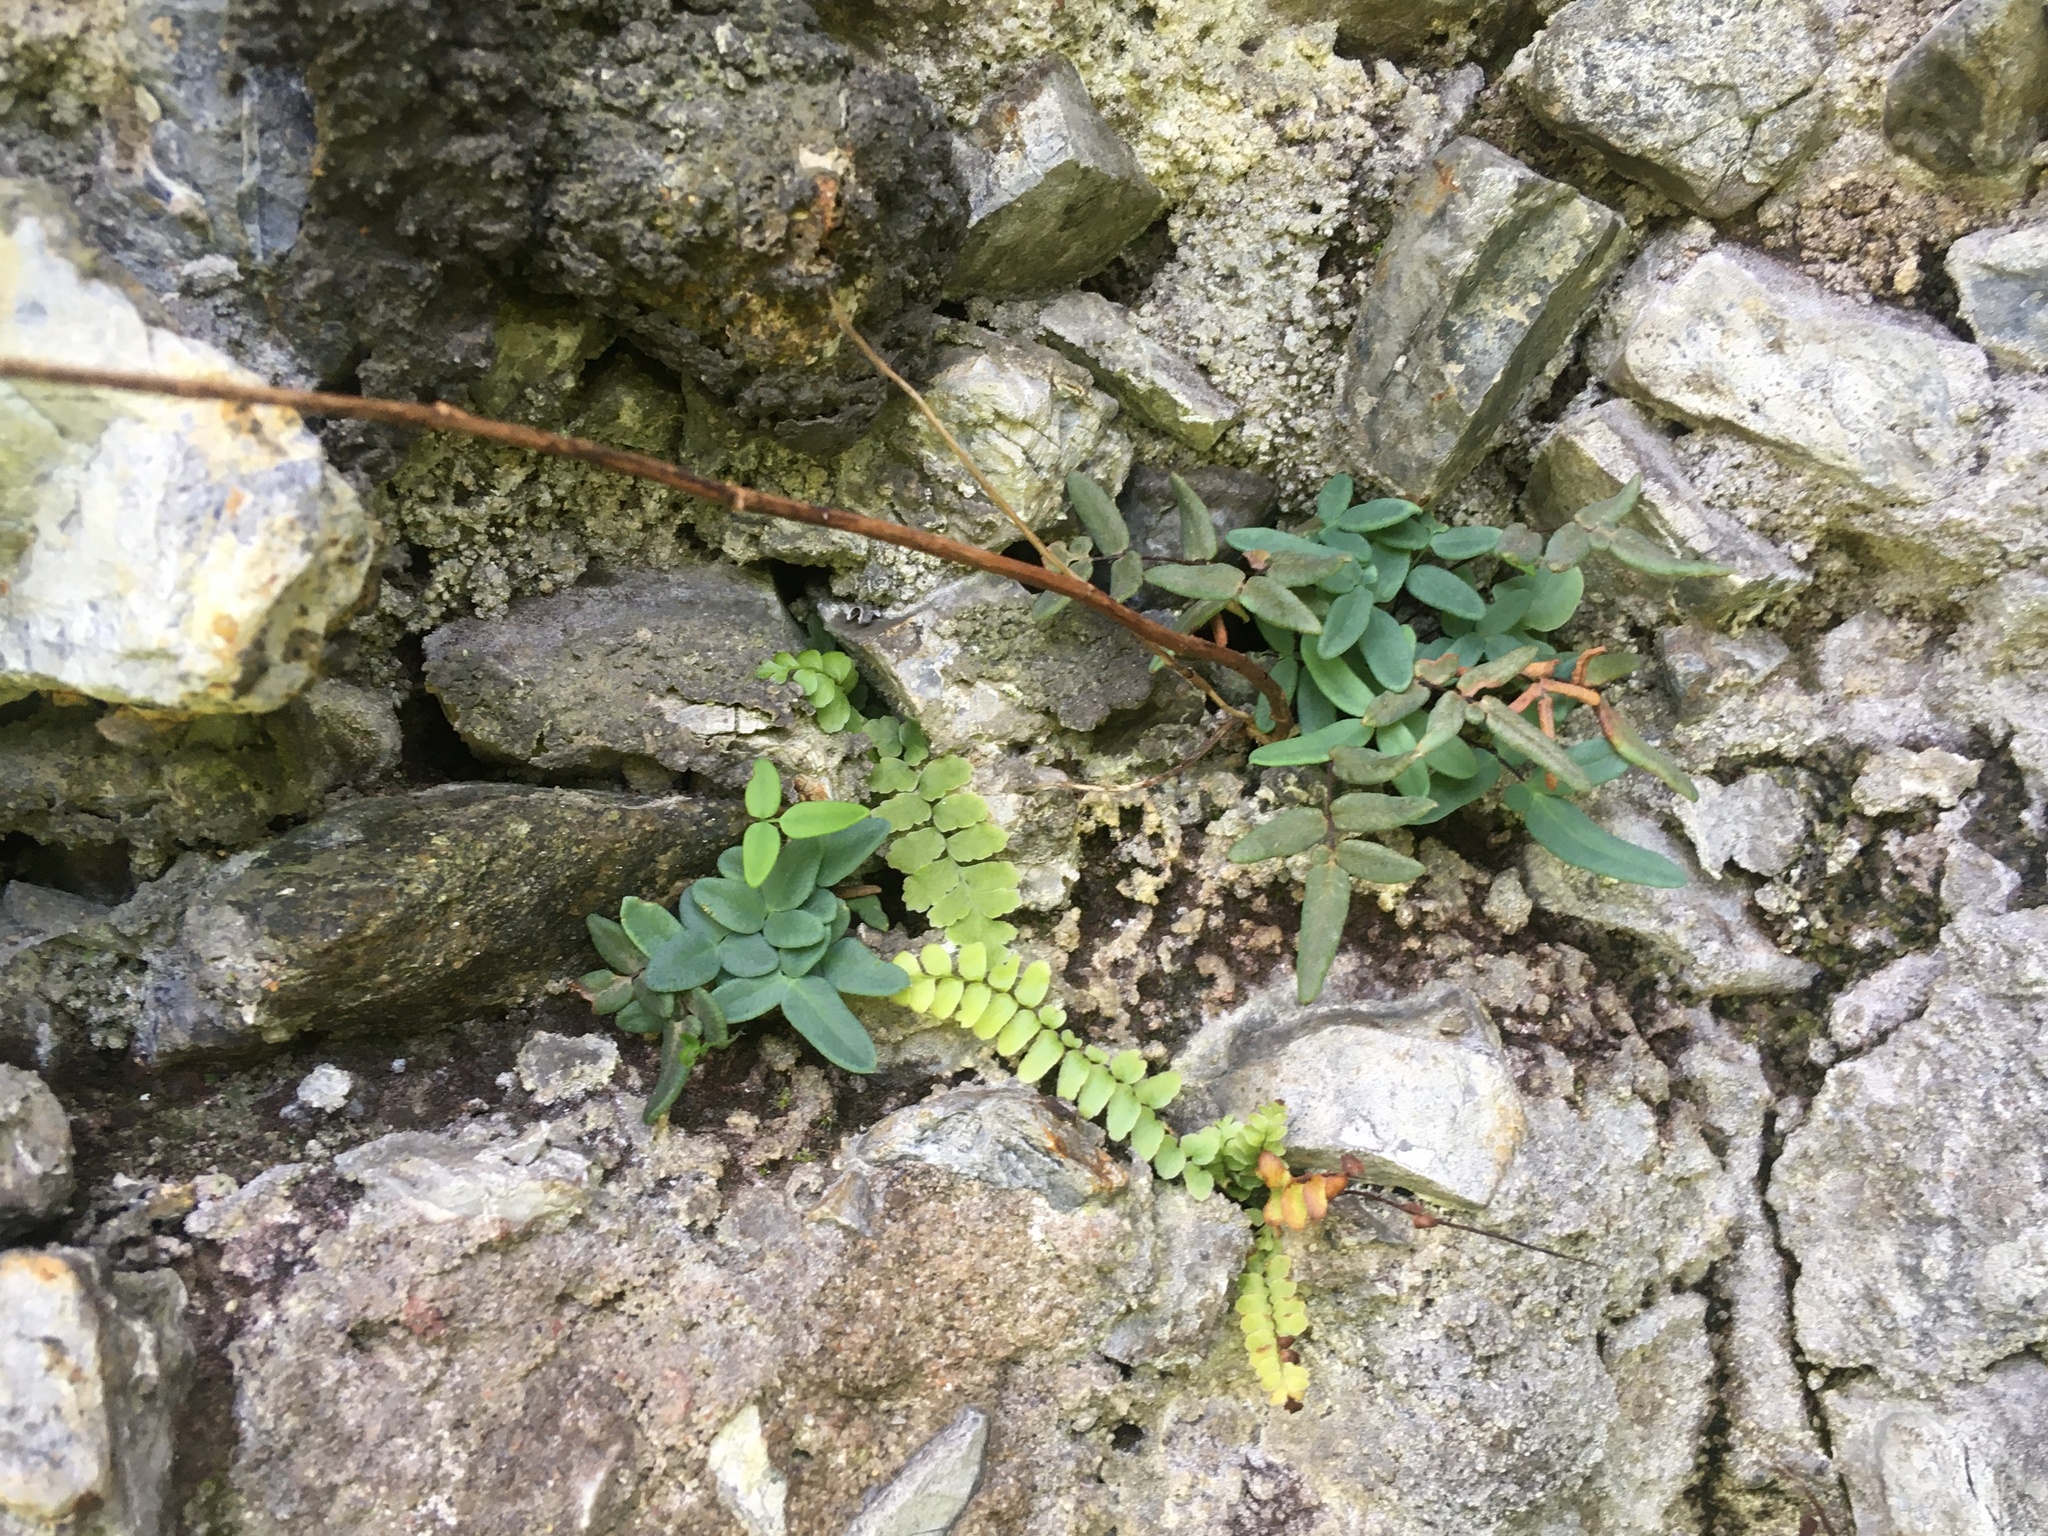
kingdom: Plantae
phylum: Tracheophyta
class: Polypodiopsida
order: Polypodiales
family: Pteridaceae
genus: Pellaea
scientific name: Pellaea glabella
